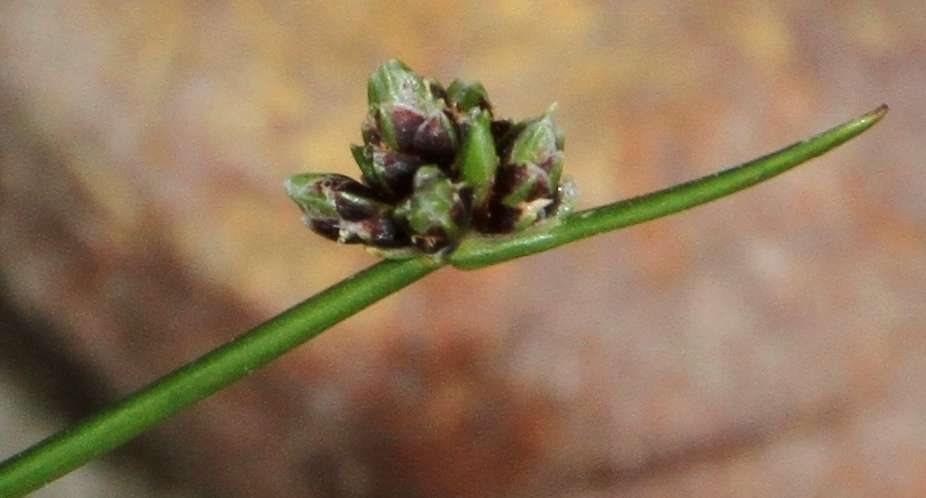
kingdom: Plantae
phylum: Tracheophyta
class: Liliopsida
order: Poales
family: Cyperaceae
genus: Isolepis
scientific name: Isolepis inundata
